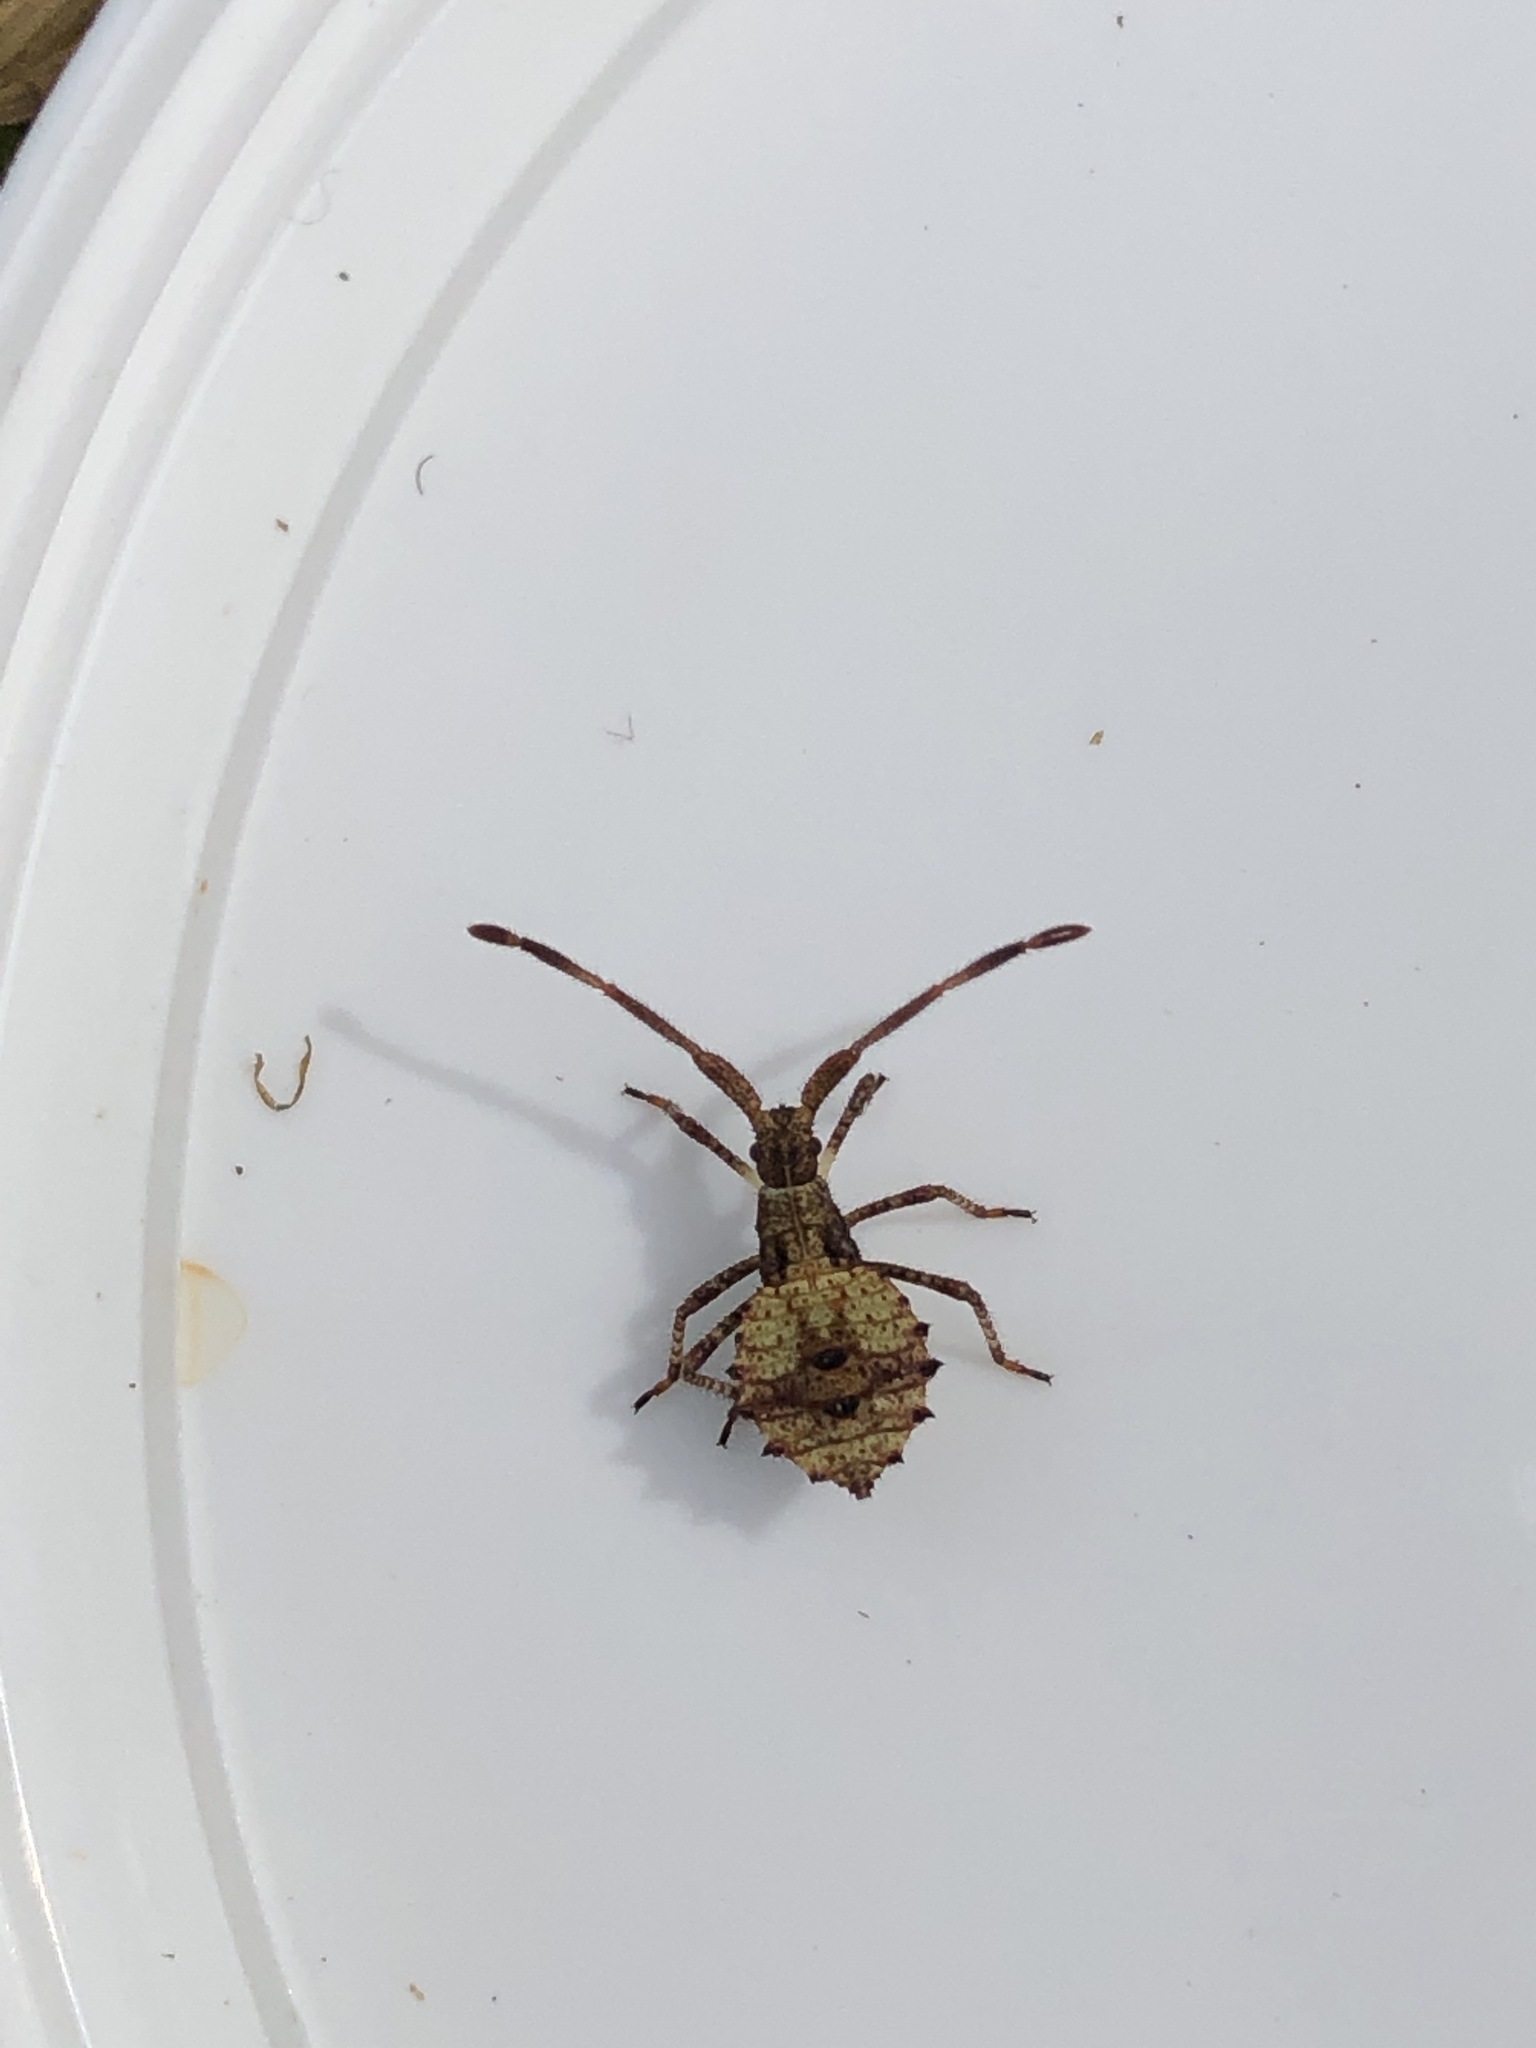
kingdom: Animalia
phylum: Arthropoda
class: Insecta
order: Hemiptera
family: Coreidae
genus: Coreus
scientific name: Coreus marginatus
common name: Dock bug
